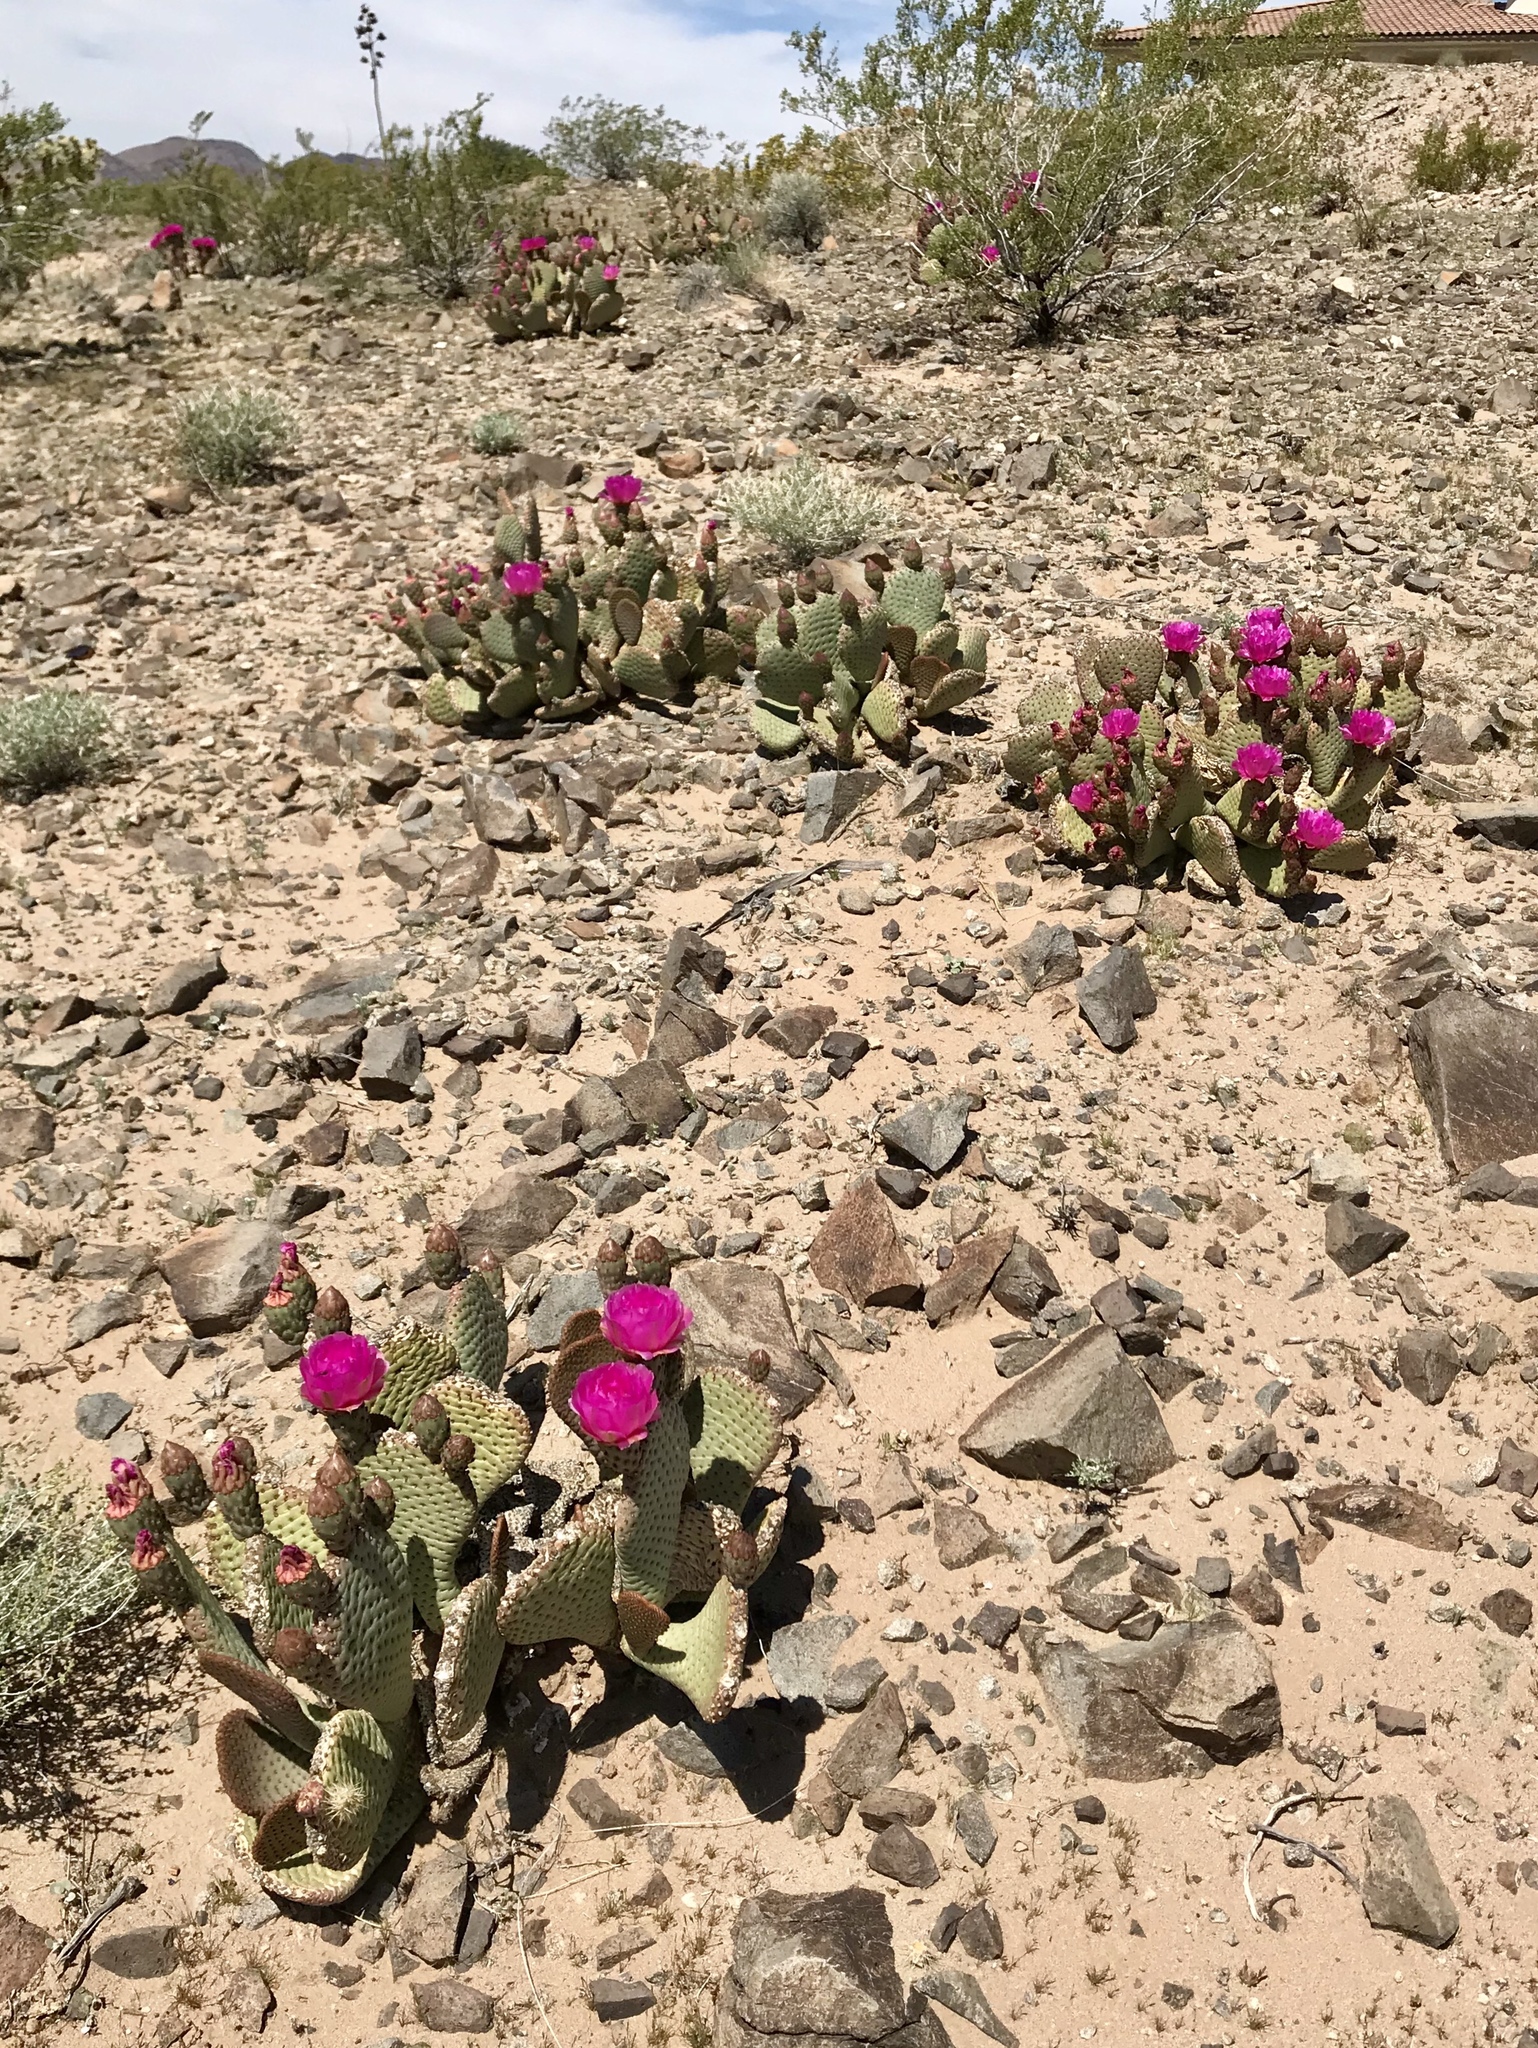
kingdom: Plantae
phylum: Tracheophyta
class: Magnoliopsida
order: Caryophyllales
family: Cactaceae
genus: Opuntia
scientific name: Opuntia basilaris
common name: Beavertail prickly-pear
